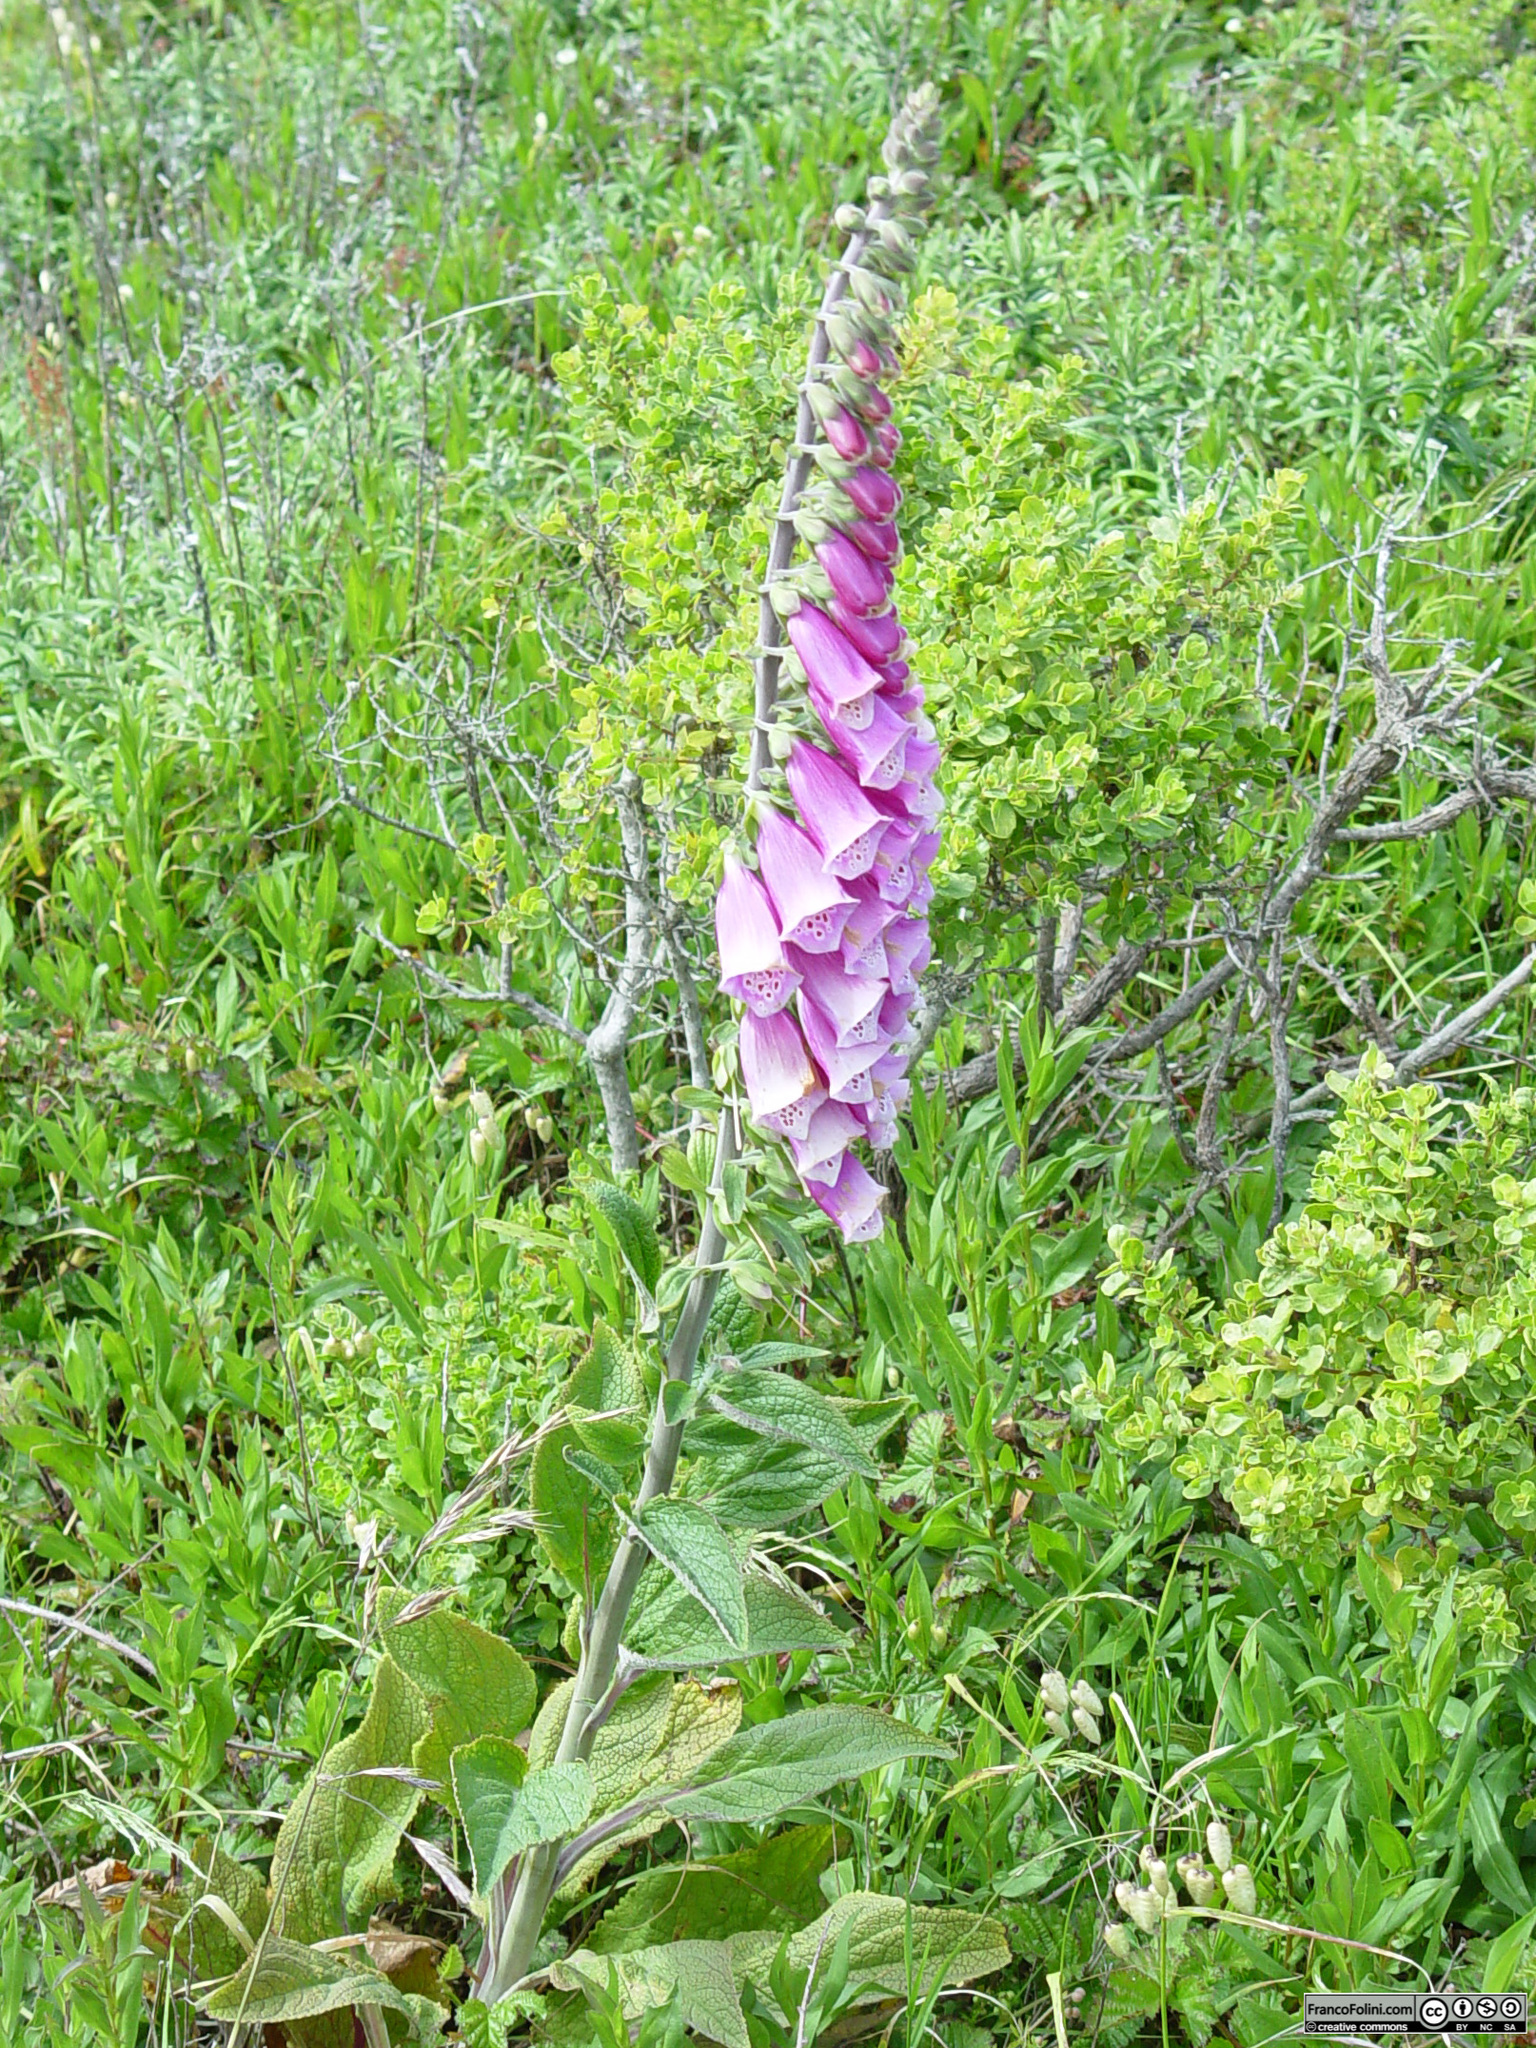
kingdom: Plantae
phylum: Tracheophyta
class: Magnoliopsida
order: Lamiales
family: Plantaginaceae
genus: Digitalis
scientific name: Digitalis purpurea
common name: Foxglove
